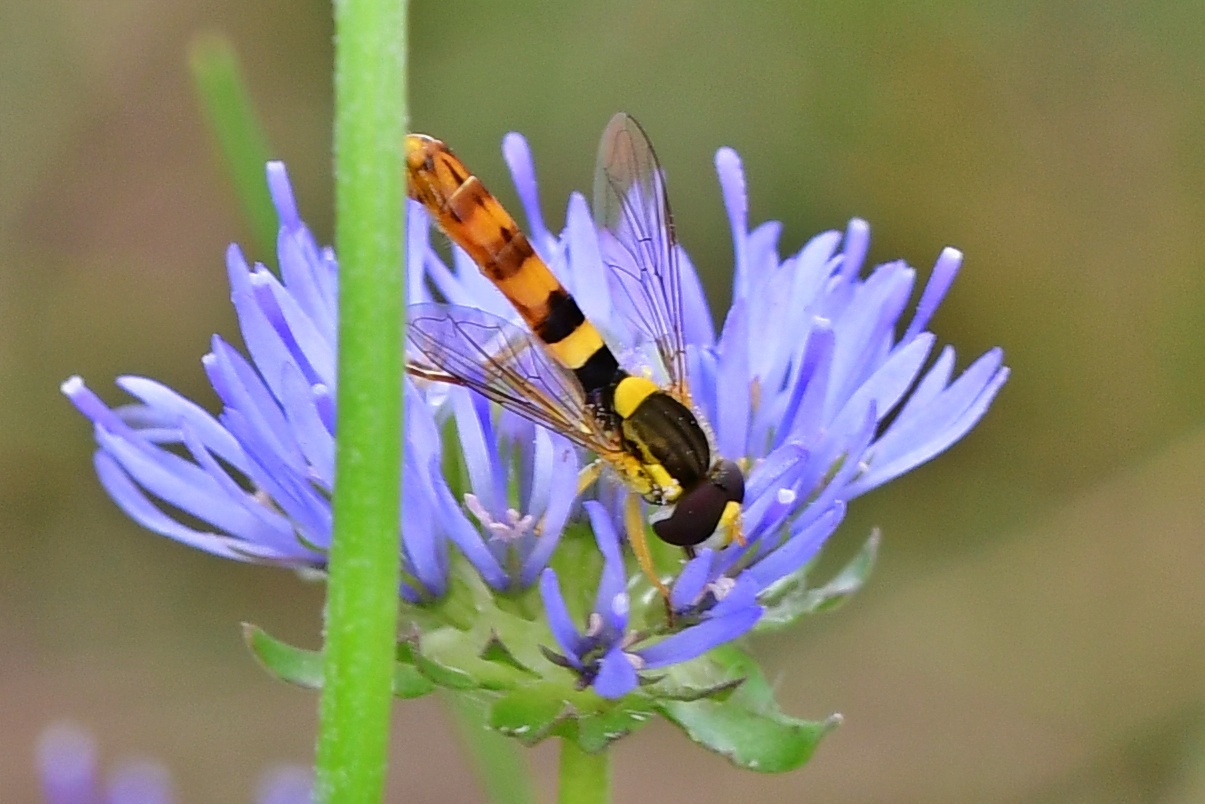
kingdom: Animalia
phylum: Arthropoda
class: Insecta
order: Diptera
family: Syrphidae
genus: Sphaerophoria
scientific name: Sphaerophoria scripta
